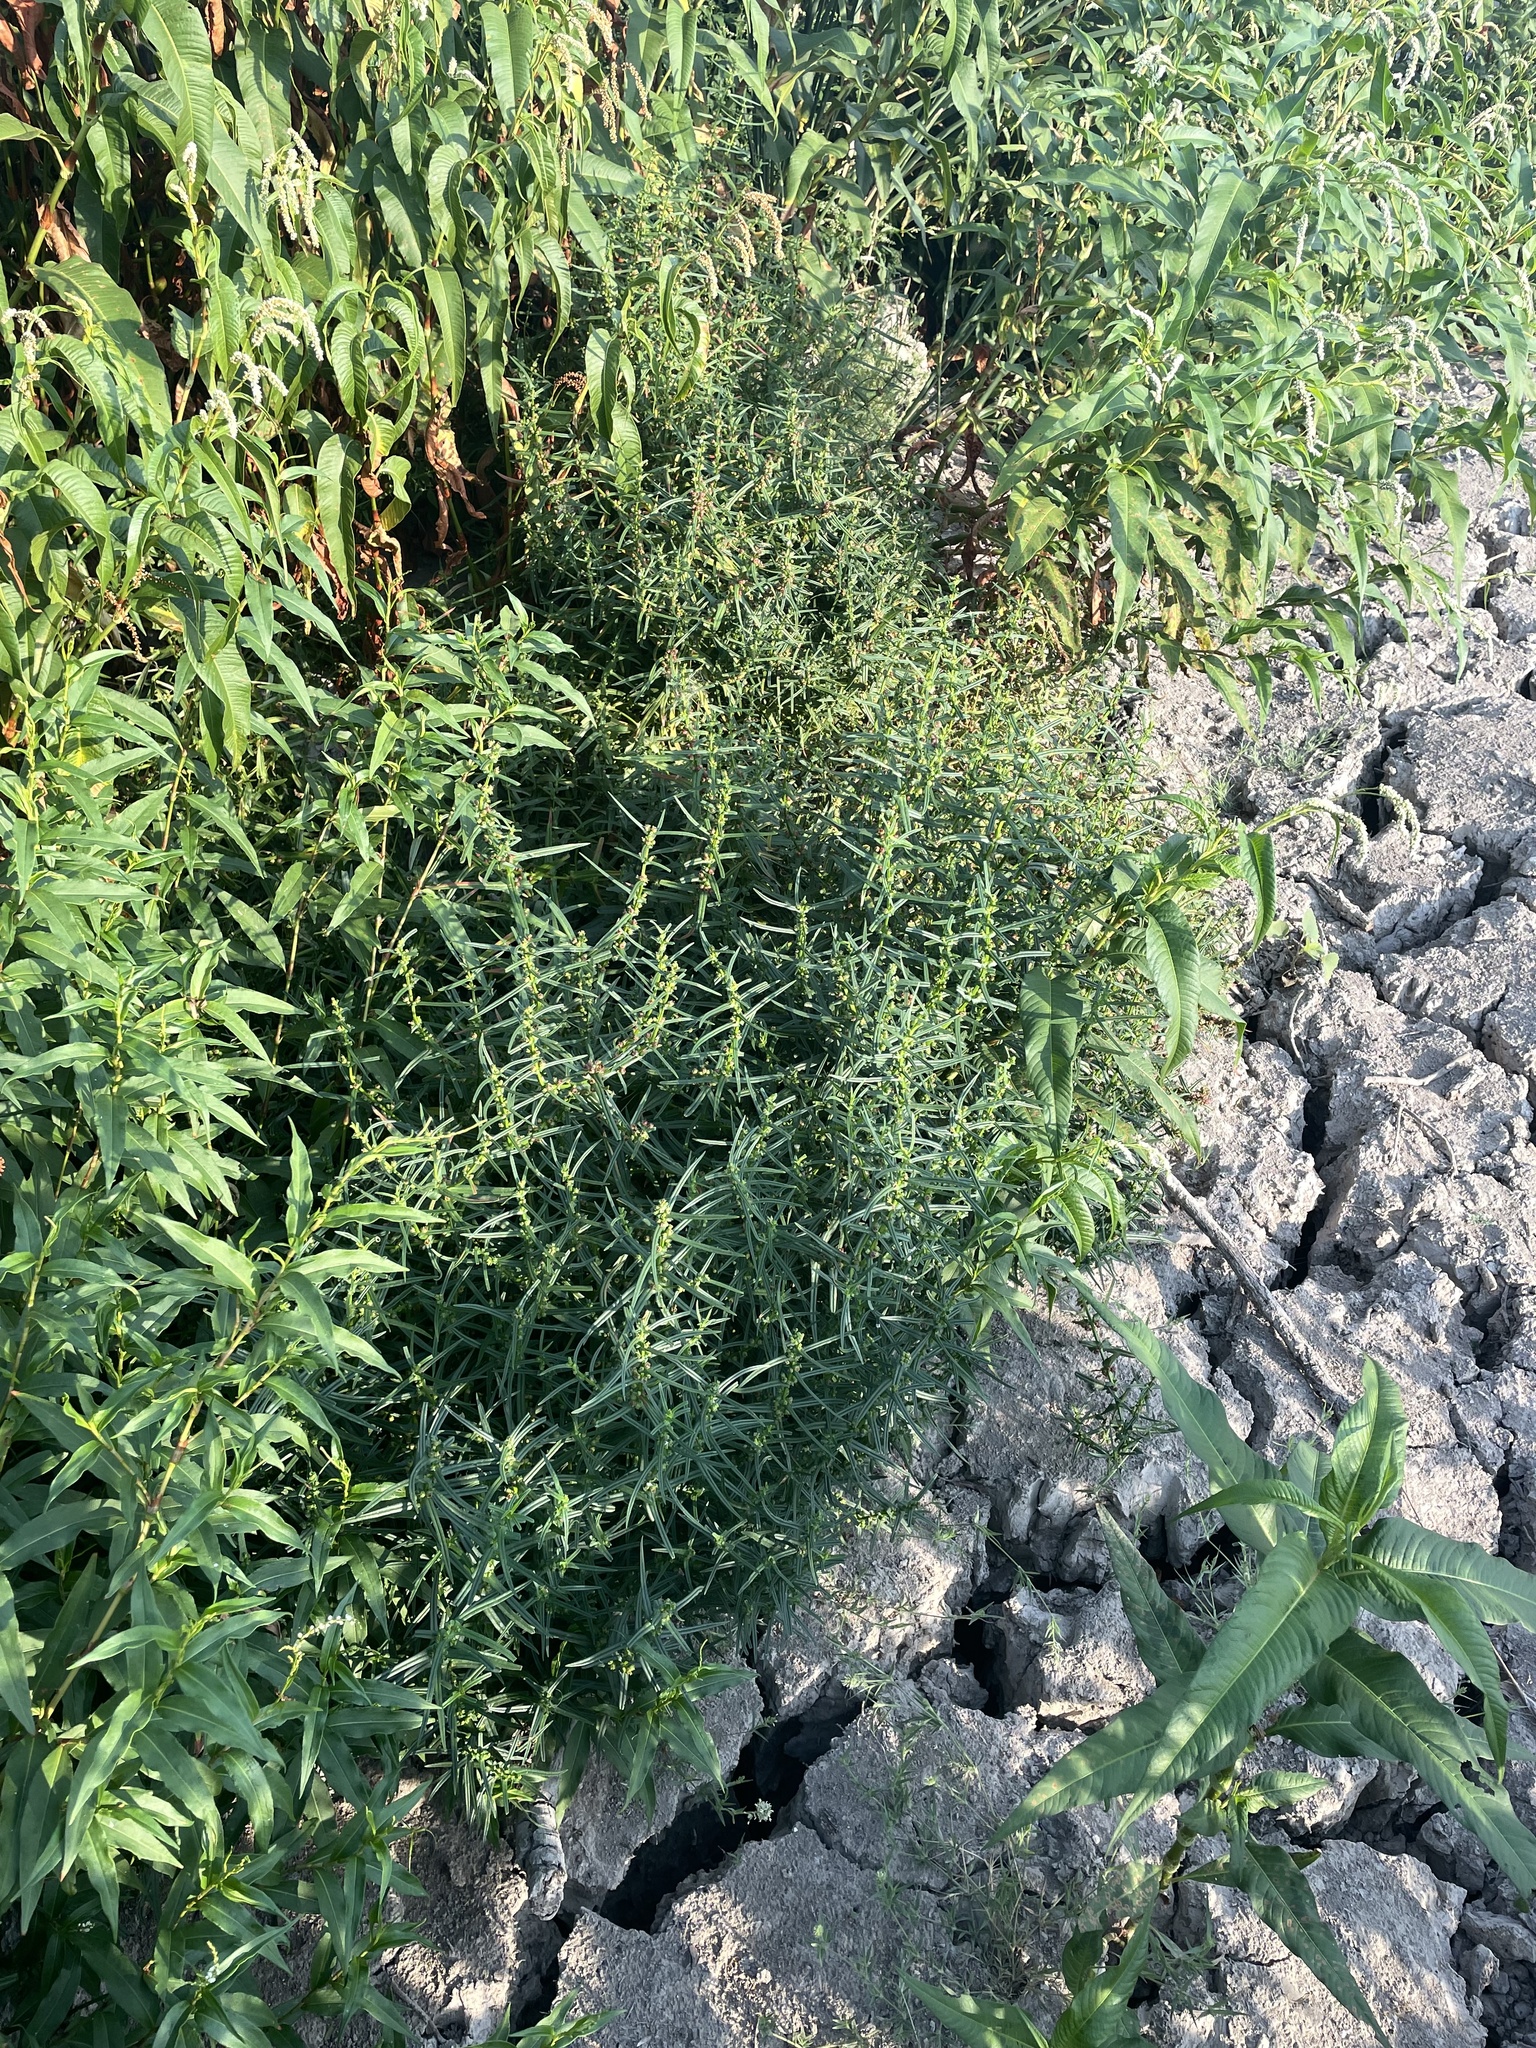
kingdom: Plantae
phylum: Tracheophyta
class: Magnoliopsida
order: Myrtales
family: Lythraceae
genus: Ammannia
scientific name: Ammannia coccinea
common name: Valley redstem
